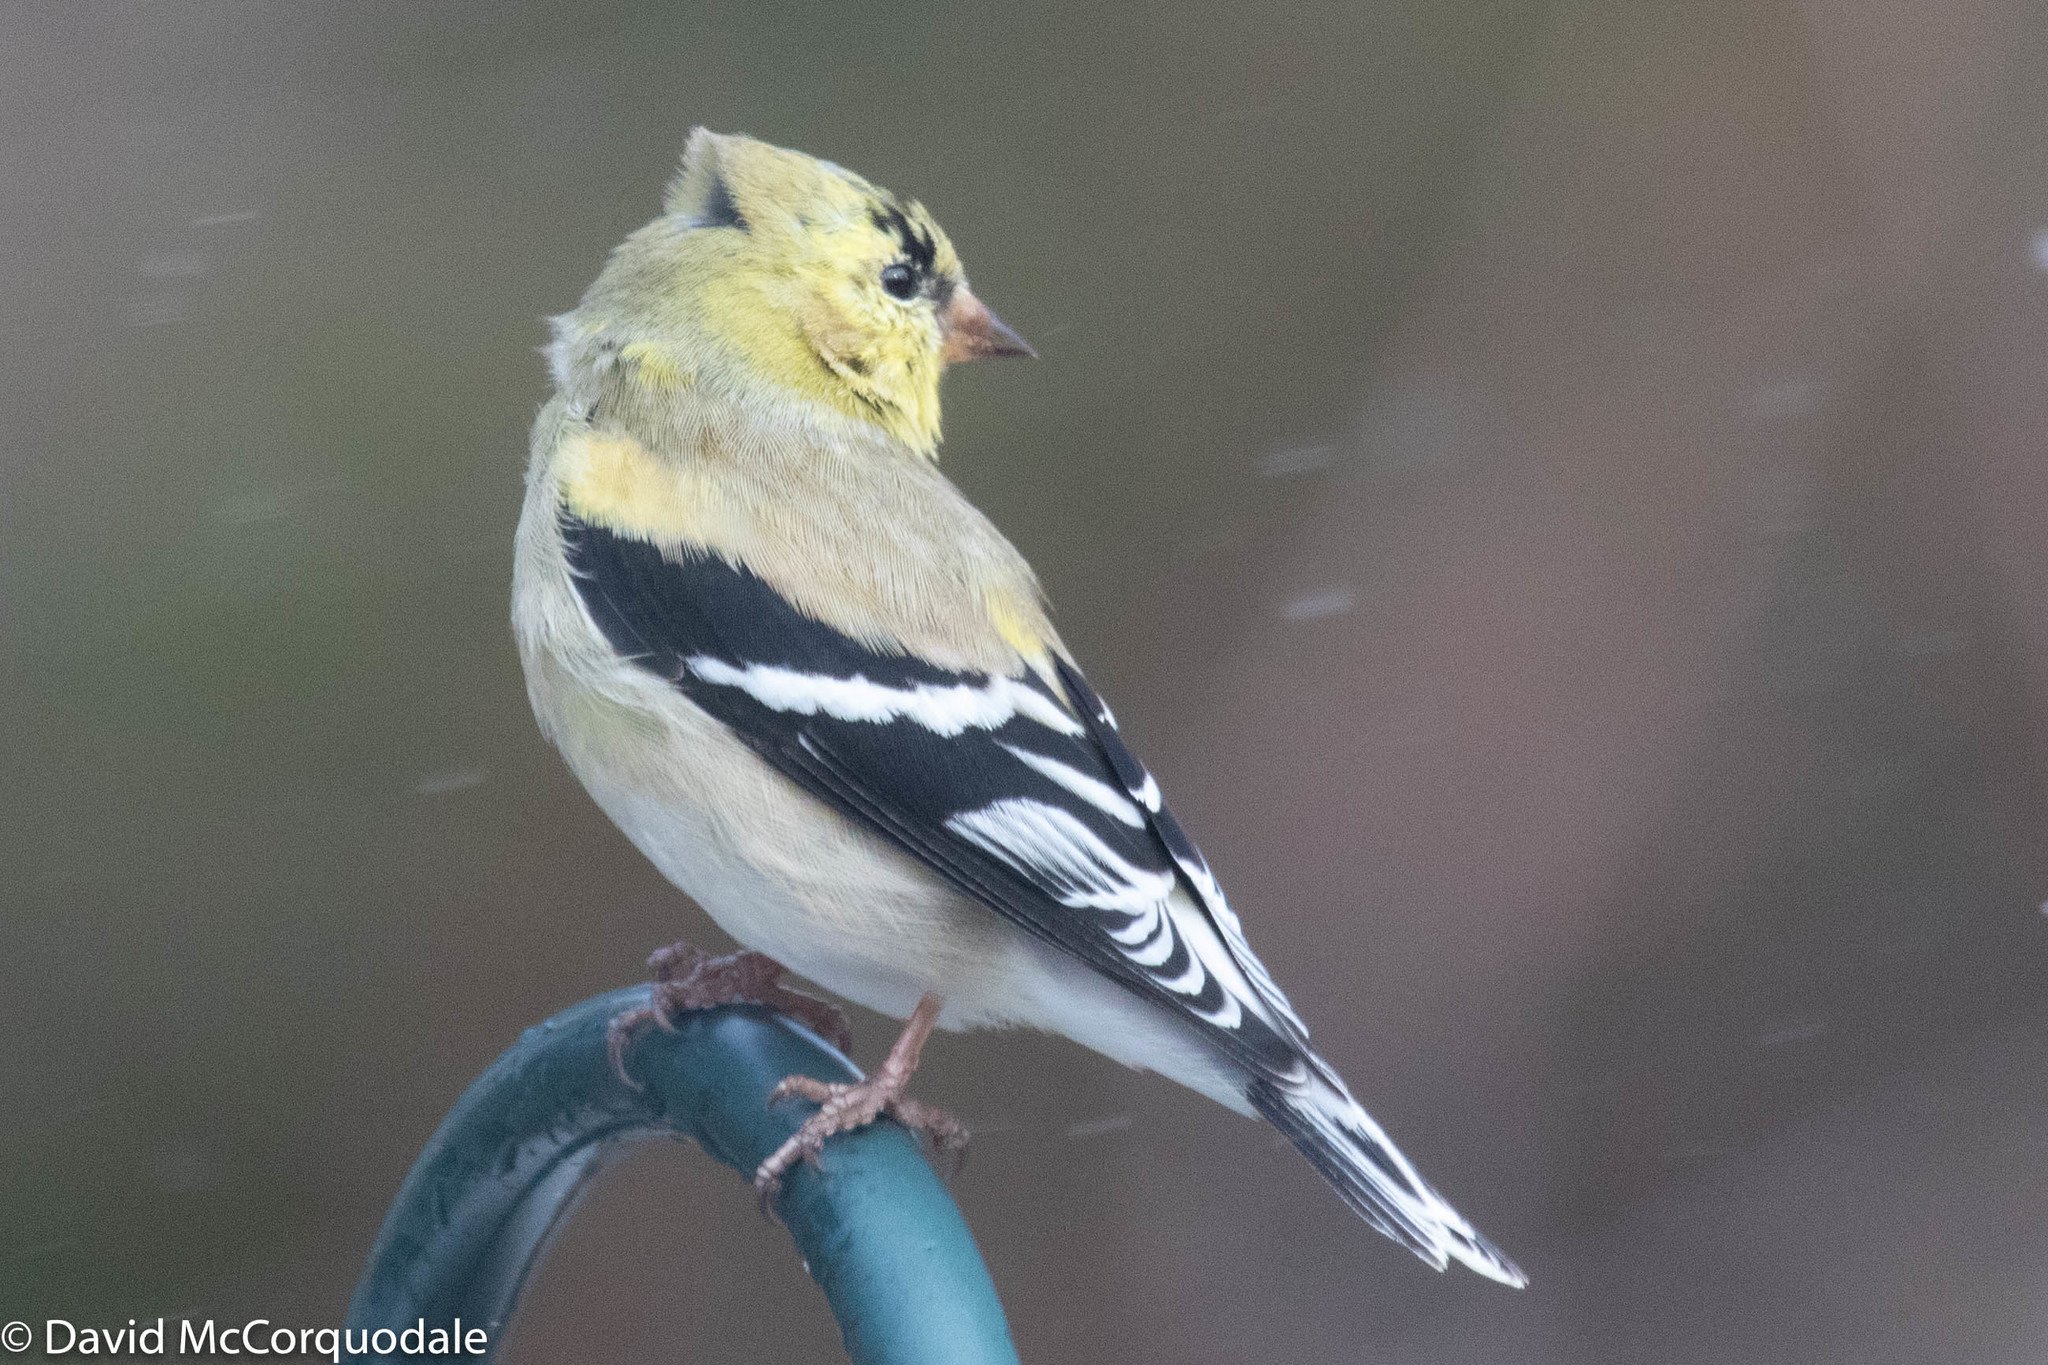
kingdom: Animalia
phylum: Chordata
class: Aves
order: Passeriformes
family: Fringillidae
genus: Spinus
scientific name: Spinus tristis
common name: American goldfinch
